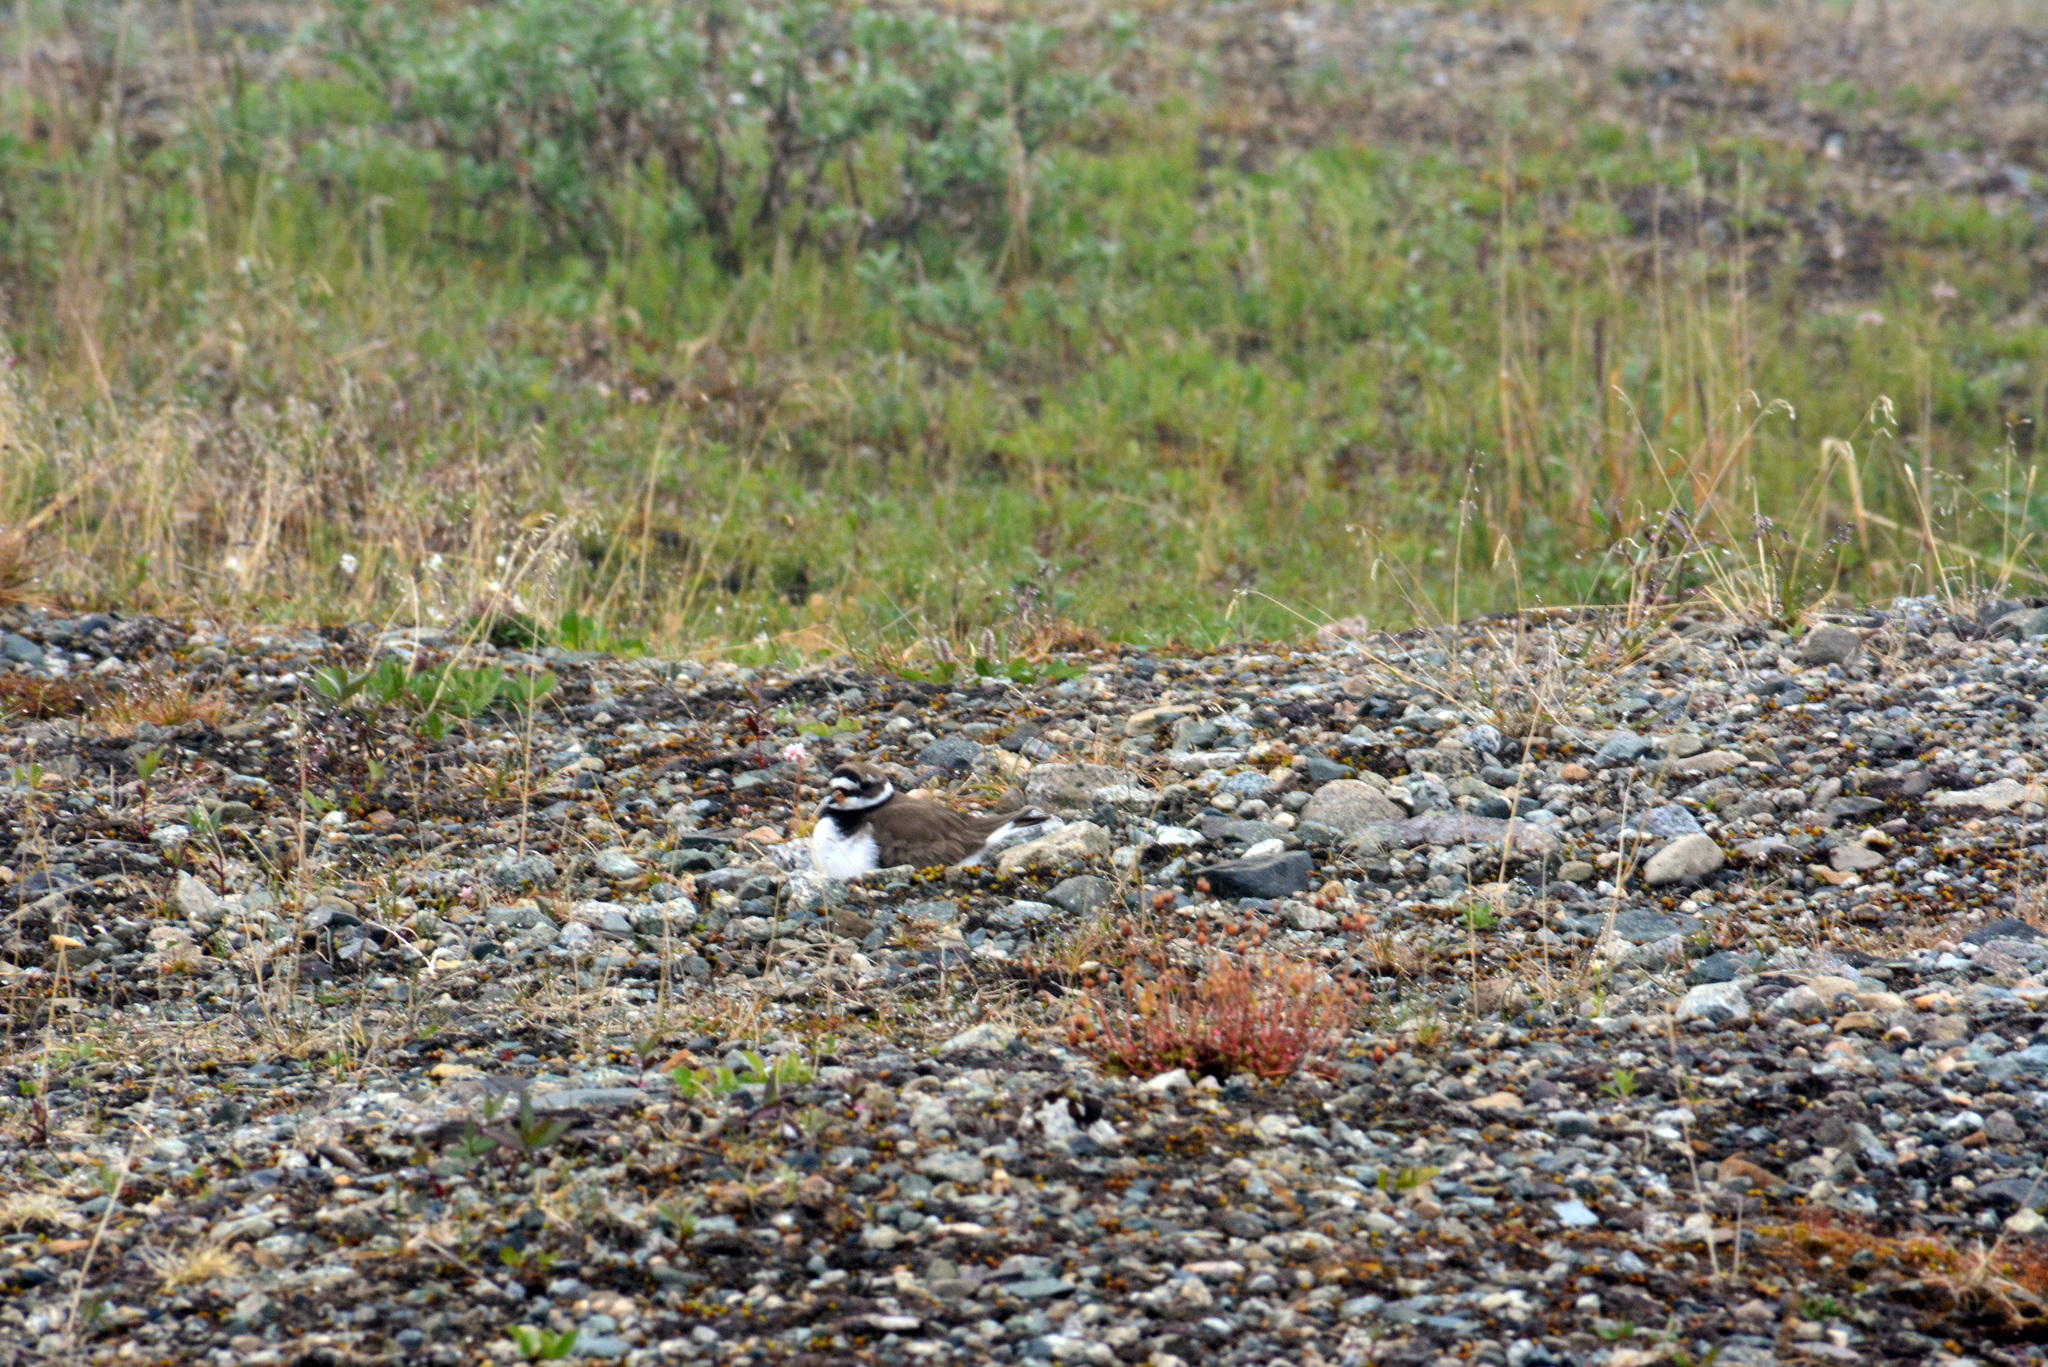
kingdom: Animalia
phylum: Chordata
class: Aves
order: Charadriiformes
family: Charadriidae
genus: Charadrius
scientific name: Charadrius hiaticula
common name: Common ringed plover
